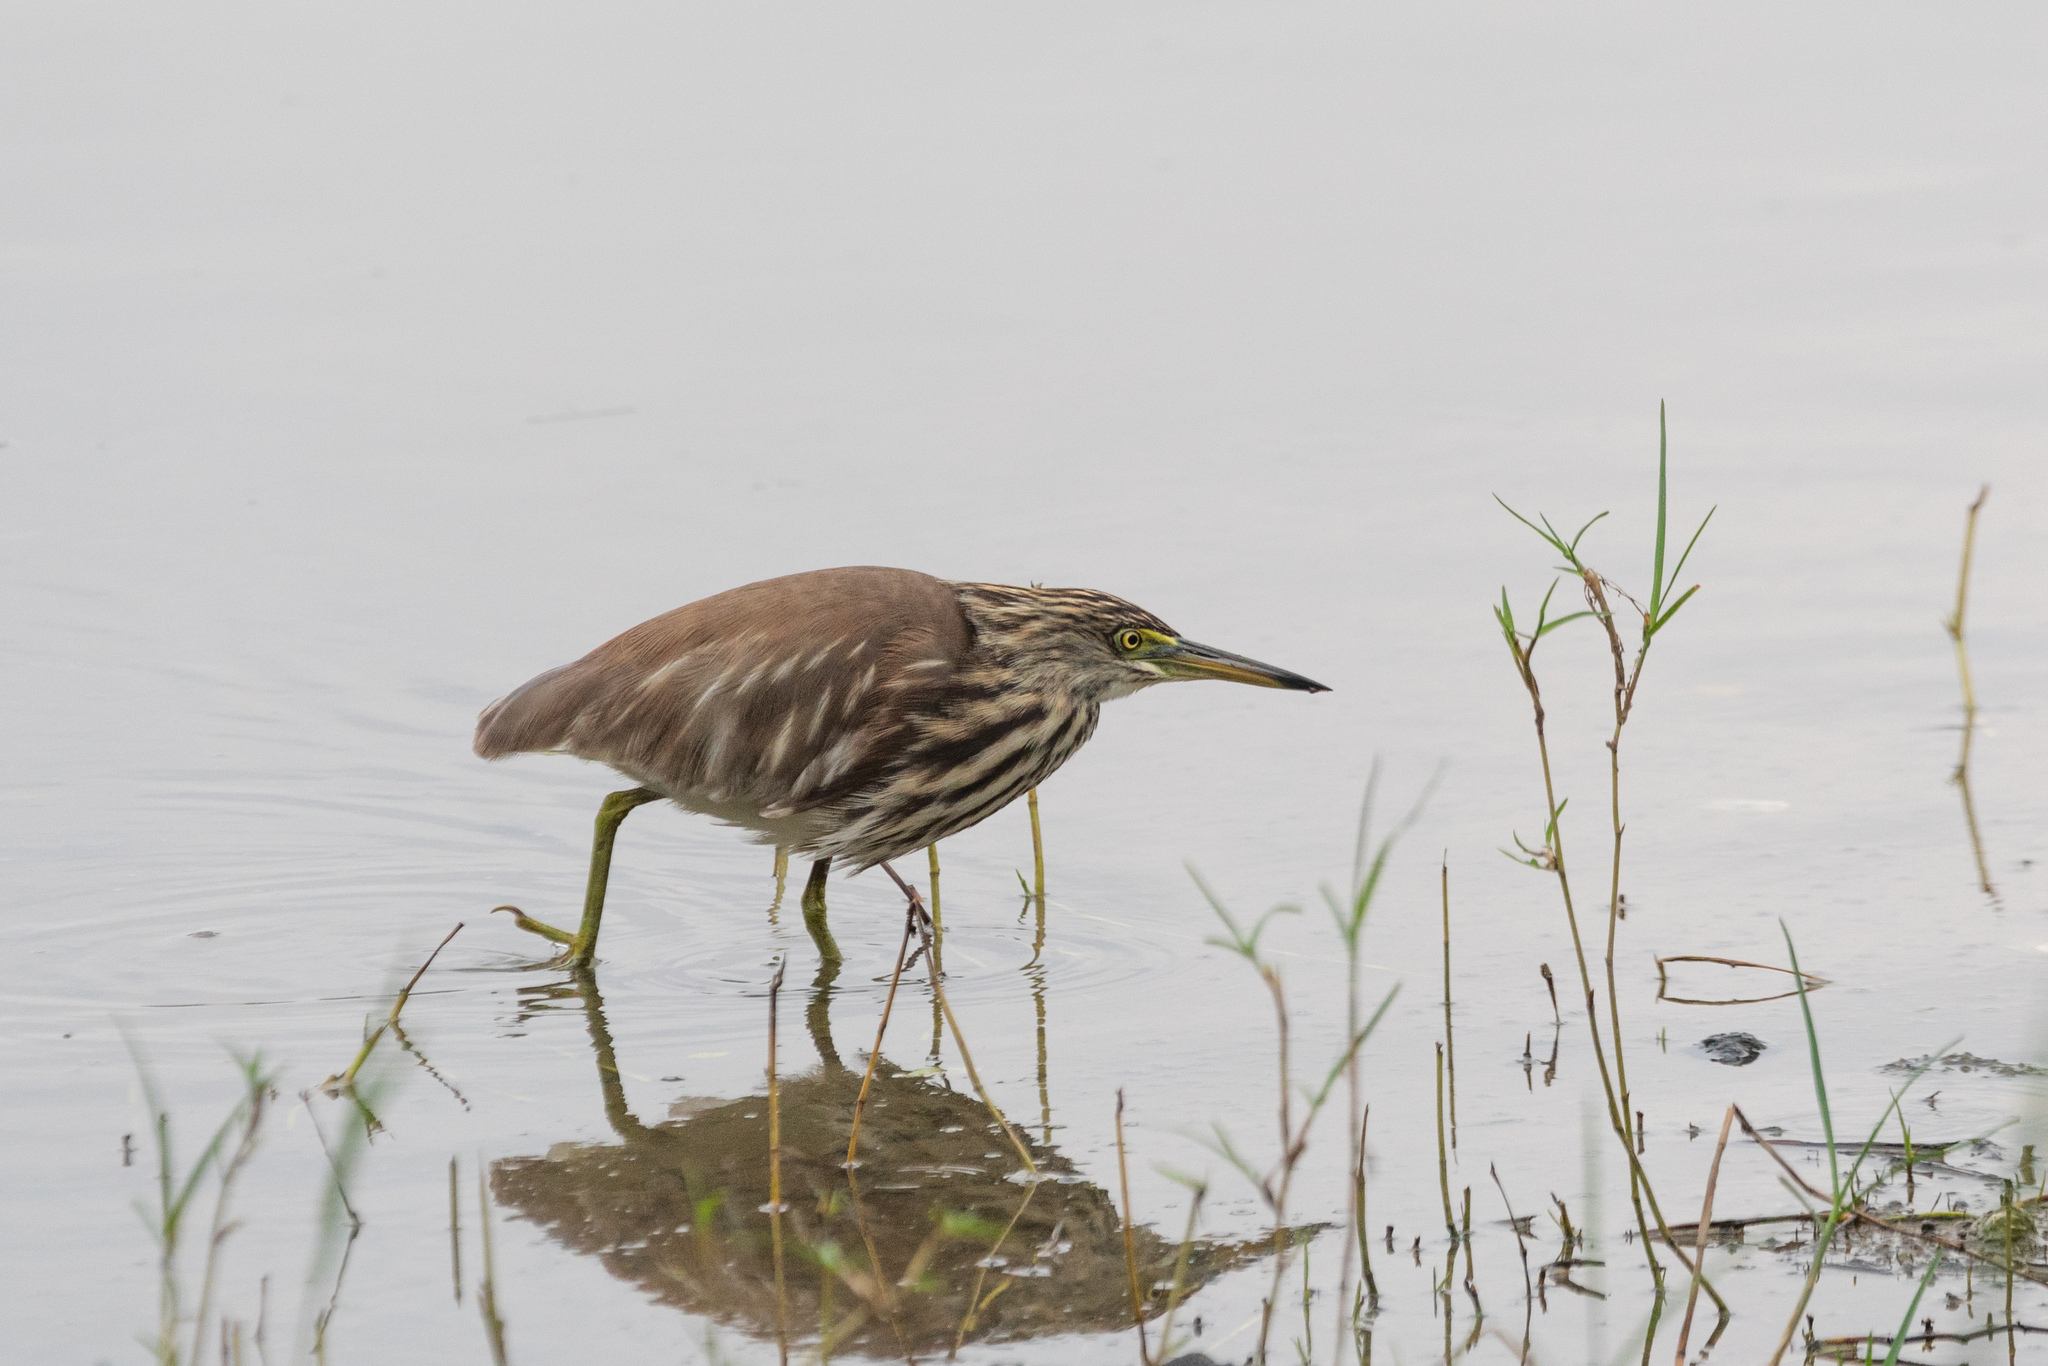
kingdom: Animalia
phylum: Chordata
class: Aves
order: Pelecaniformes
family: Ardeidae
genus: Ardeola
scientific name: Ardeola bacchus
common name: Chinese pond heron
